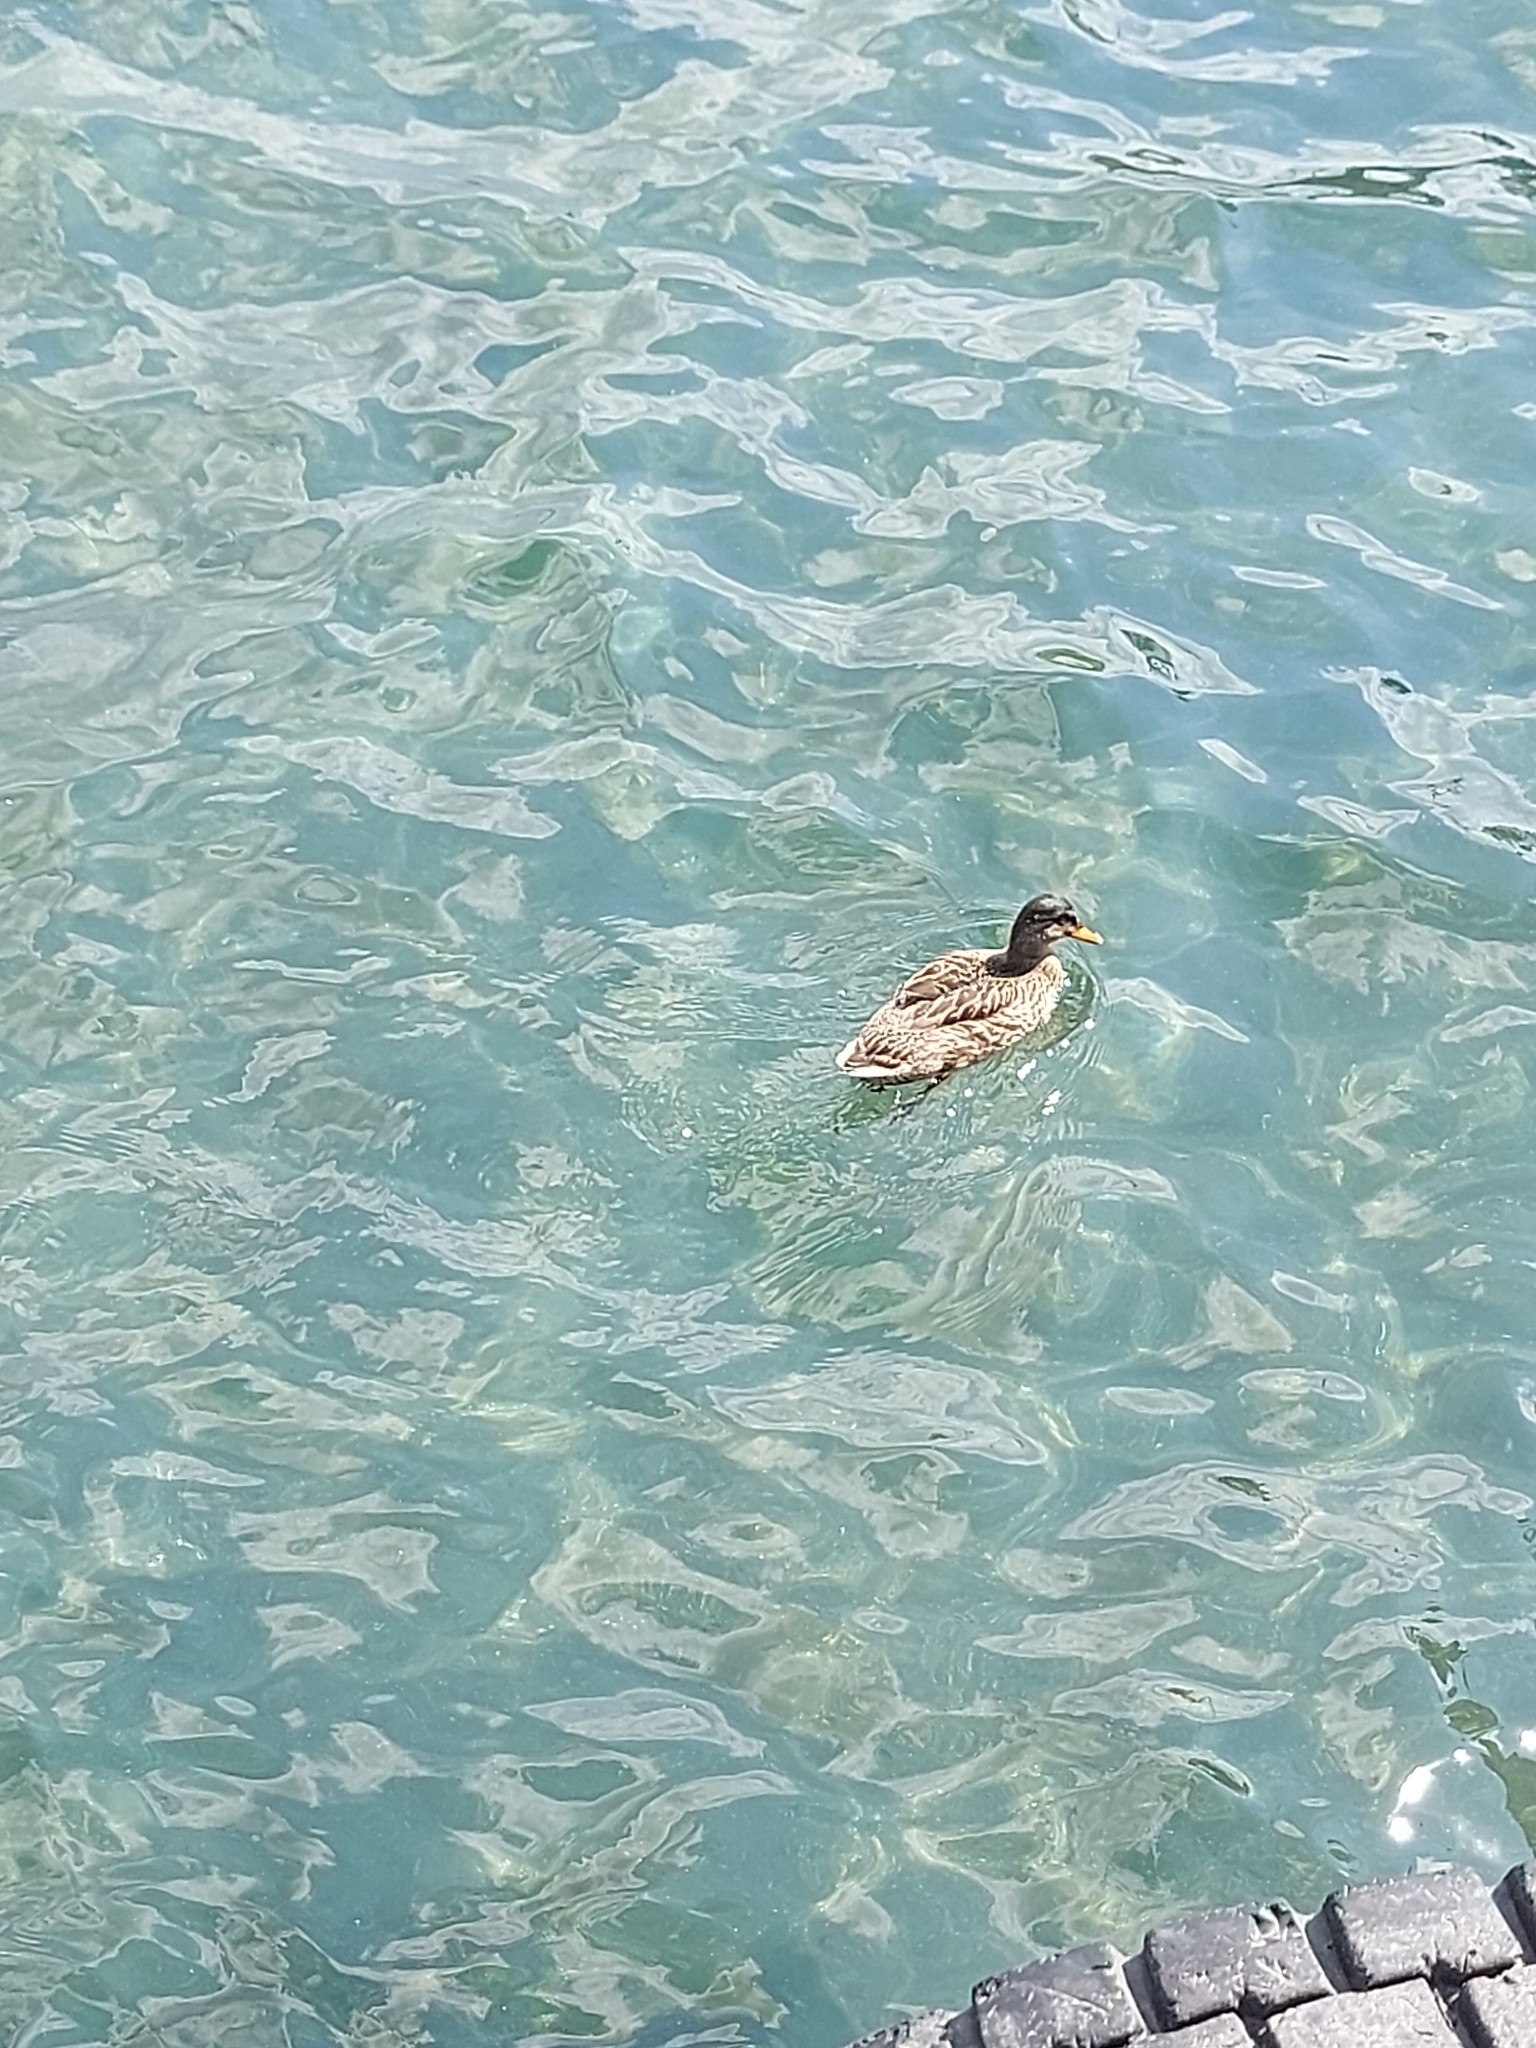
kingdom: Animalia
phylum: Chordata
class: Aves
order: Anseriformes
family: Anatidae
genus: Anas
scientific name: Anas platyrhynchos
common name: Mallard
